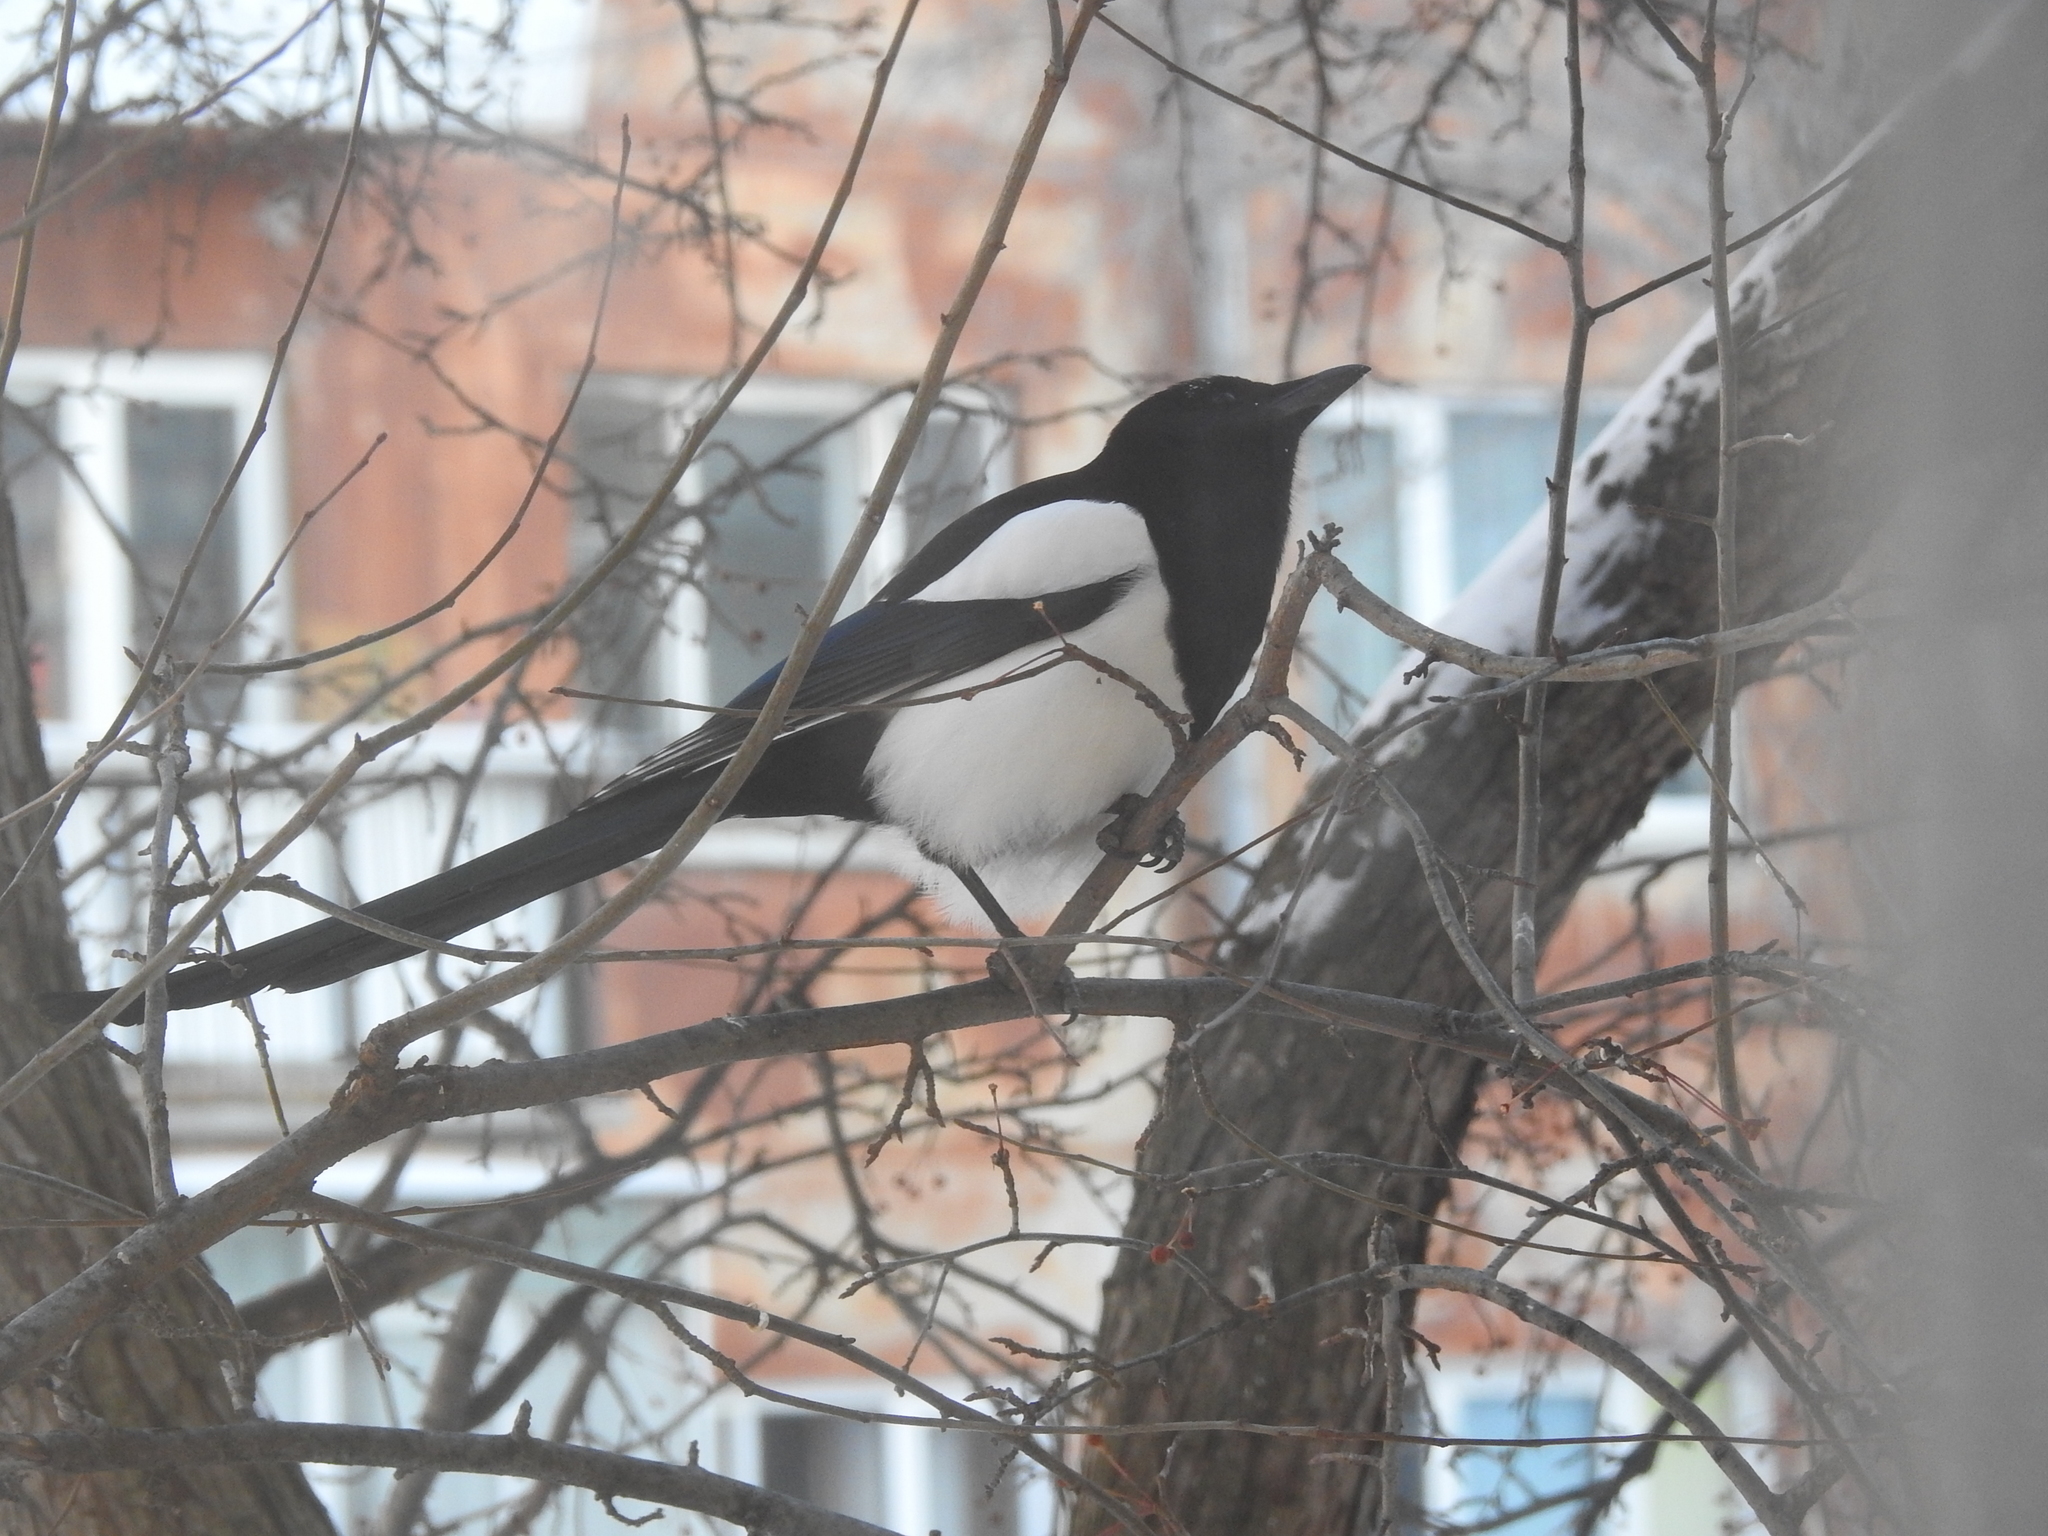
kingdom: Animalia
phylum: Chordata
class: Aves
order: Passeriformes
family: Corvidae
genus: Pica
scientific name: Pica pica
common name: Eurasian magpie
